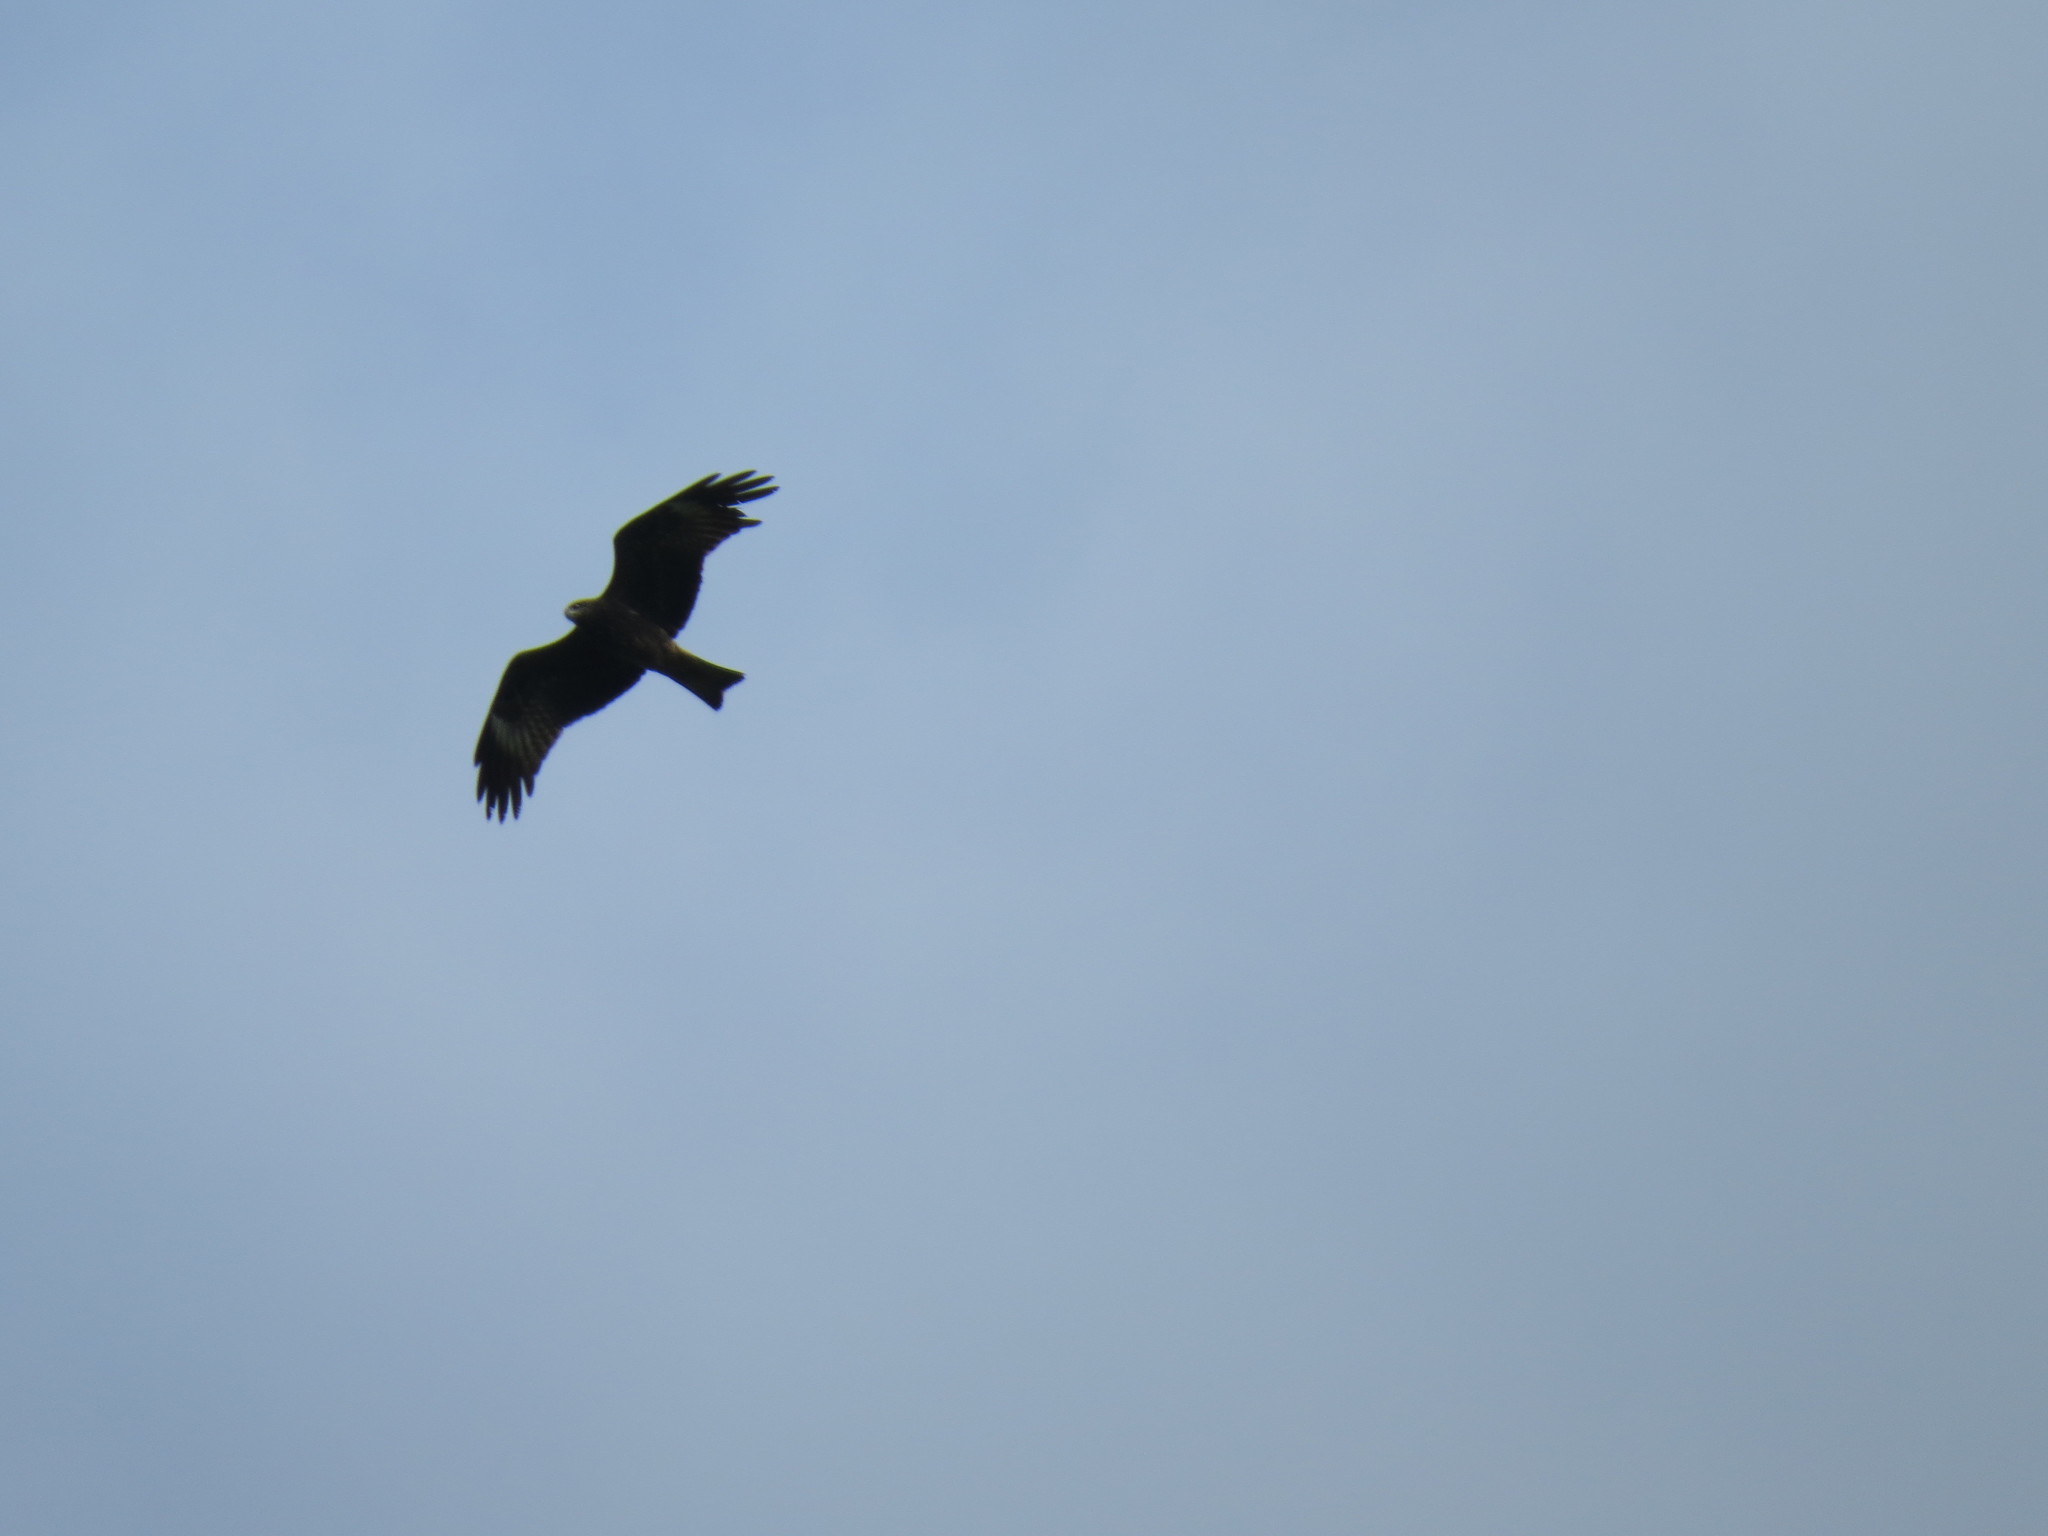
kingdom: Animalia
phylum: Chordata
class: Aves
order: Accipitriformes
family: Accipitridae
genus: Milvus
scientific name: Milvus migrans
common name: Black kite
